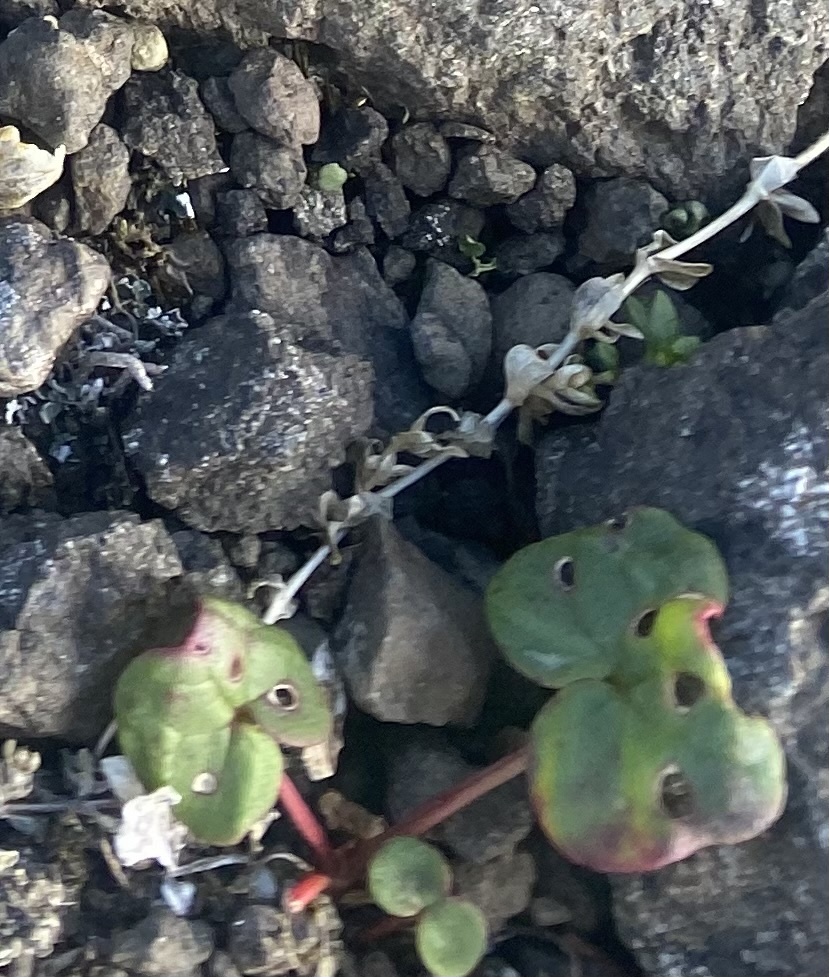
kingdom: Plantae
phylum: Tracheophyta
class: Magnoliopsida
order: Caryophyllales
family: Polygonaceae
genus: Oxyria
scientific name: Oxyria digyna
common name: Alpine mountain-sorrel
